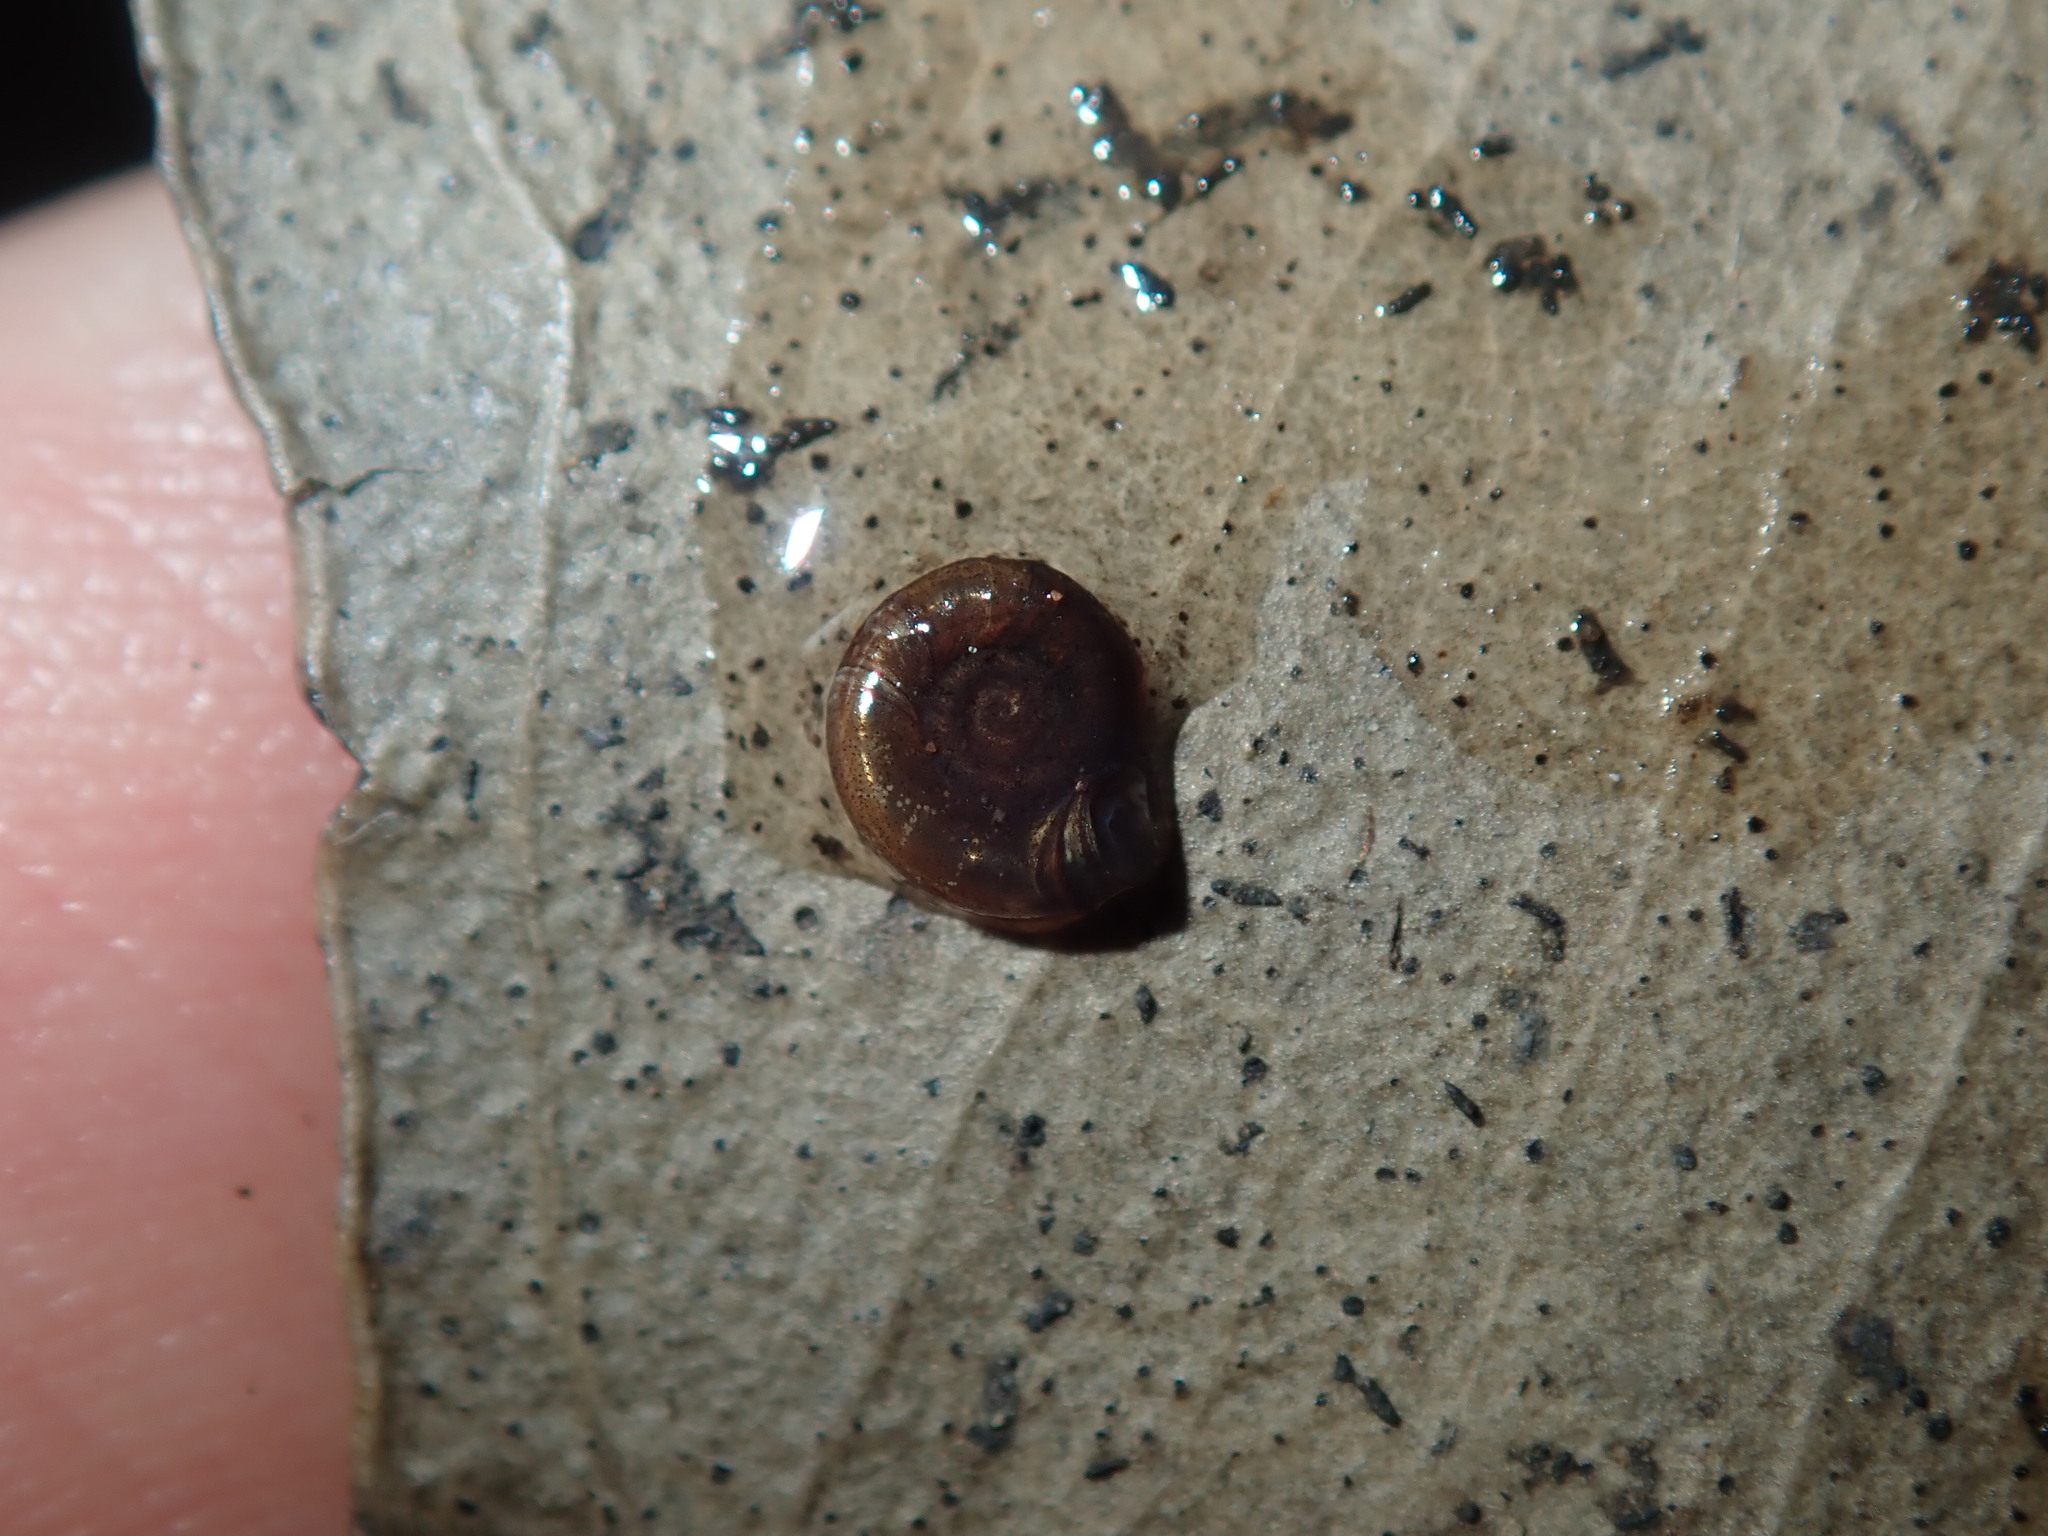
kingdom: Animalia
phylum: Mollusca
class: Gastropoda
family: Planorbidae
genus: Gyraulus
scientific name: Gyraulus scottianus
